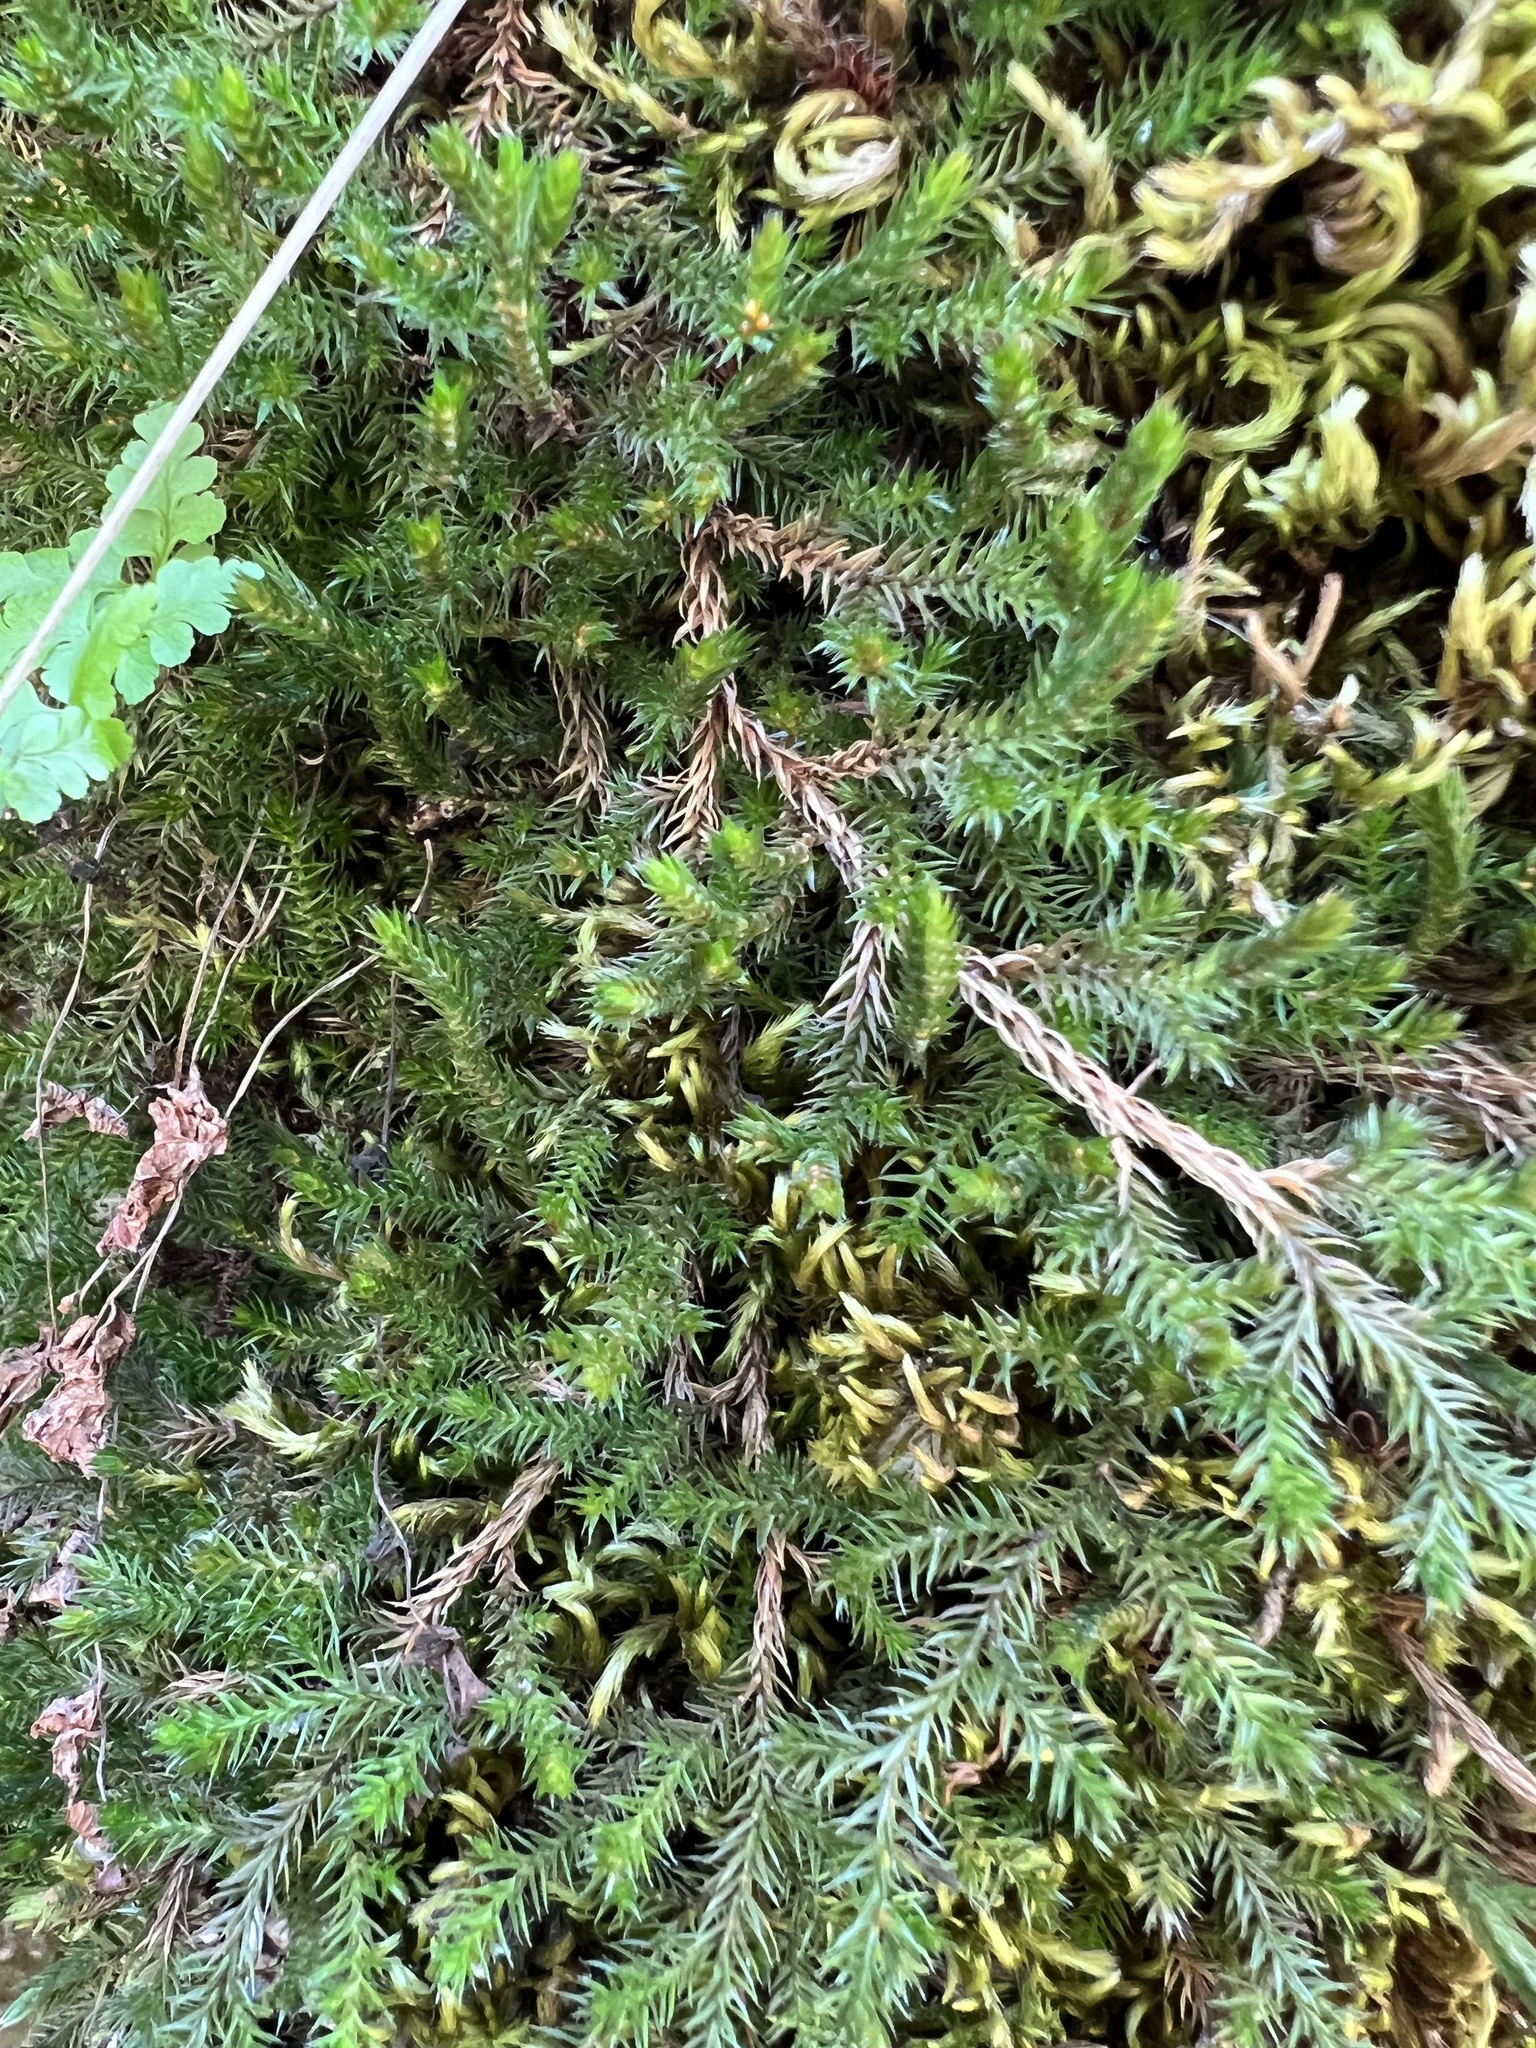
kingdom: Plantae
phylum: Tracheophyta
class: Lycopodiopsida
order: Selaginellales
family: Selaginellaceae
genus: Selaginella
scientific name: Selaginella underwoodii
